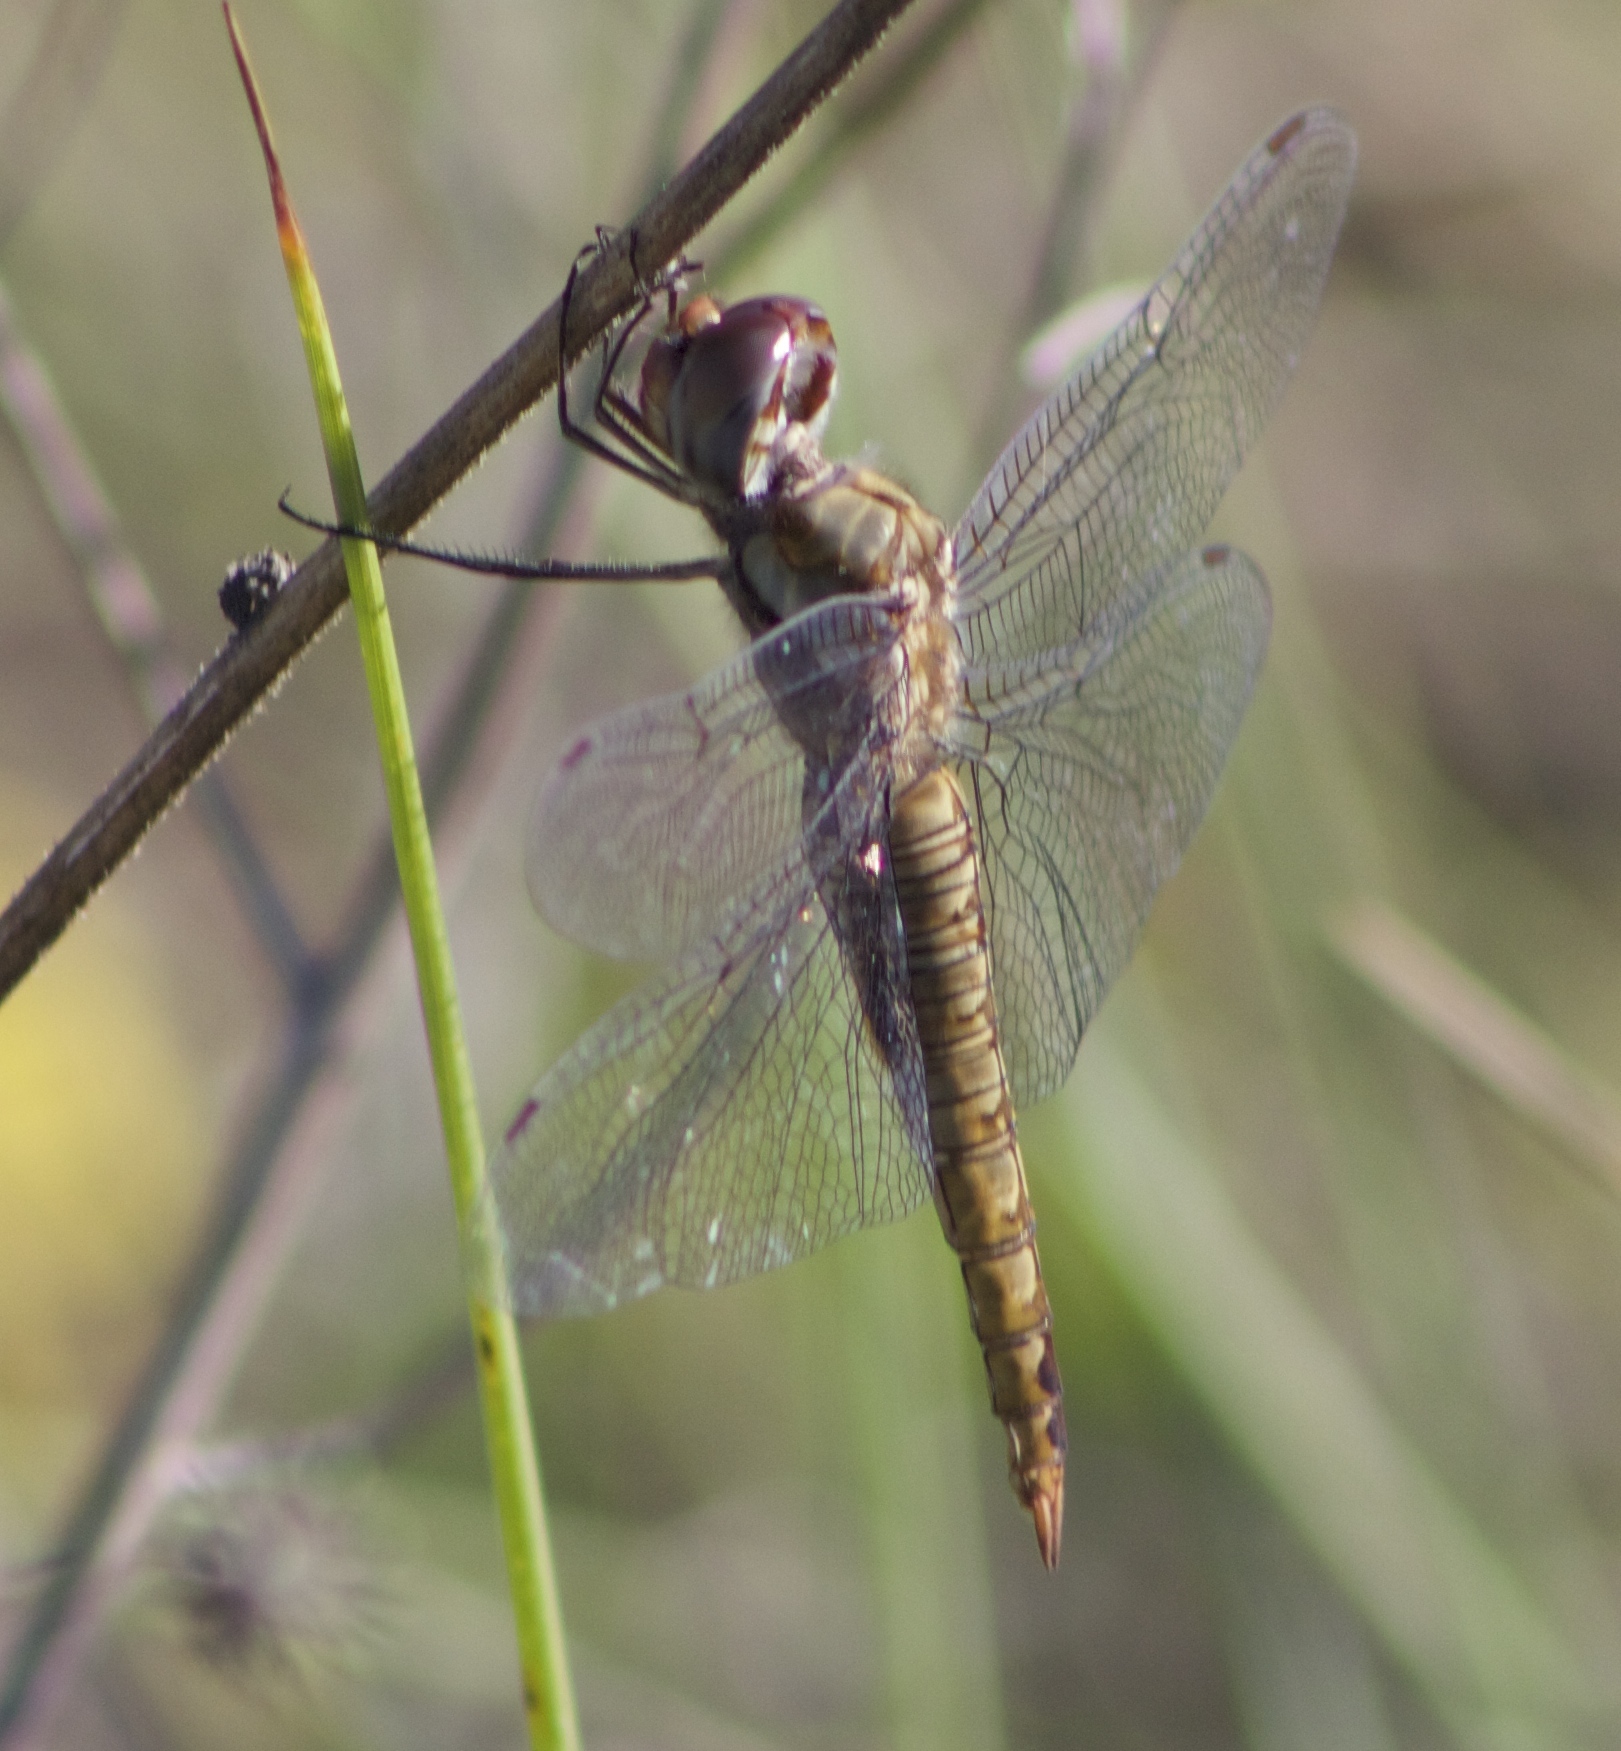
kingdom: Animalia
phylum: Arthropoda
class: Insecta
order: Odonata
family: Libellulidae
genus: Pantala
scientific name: Pantala flavescens
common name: Wandering glider
